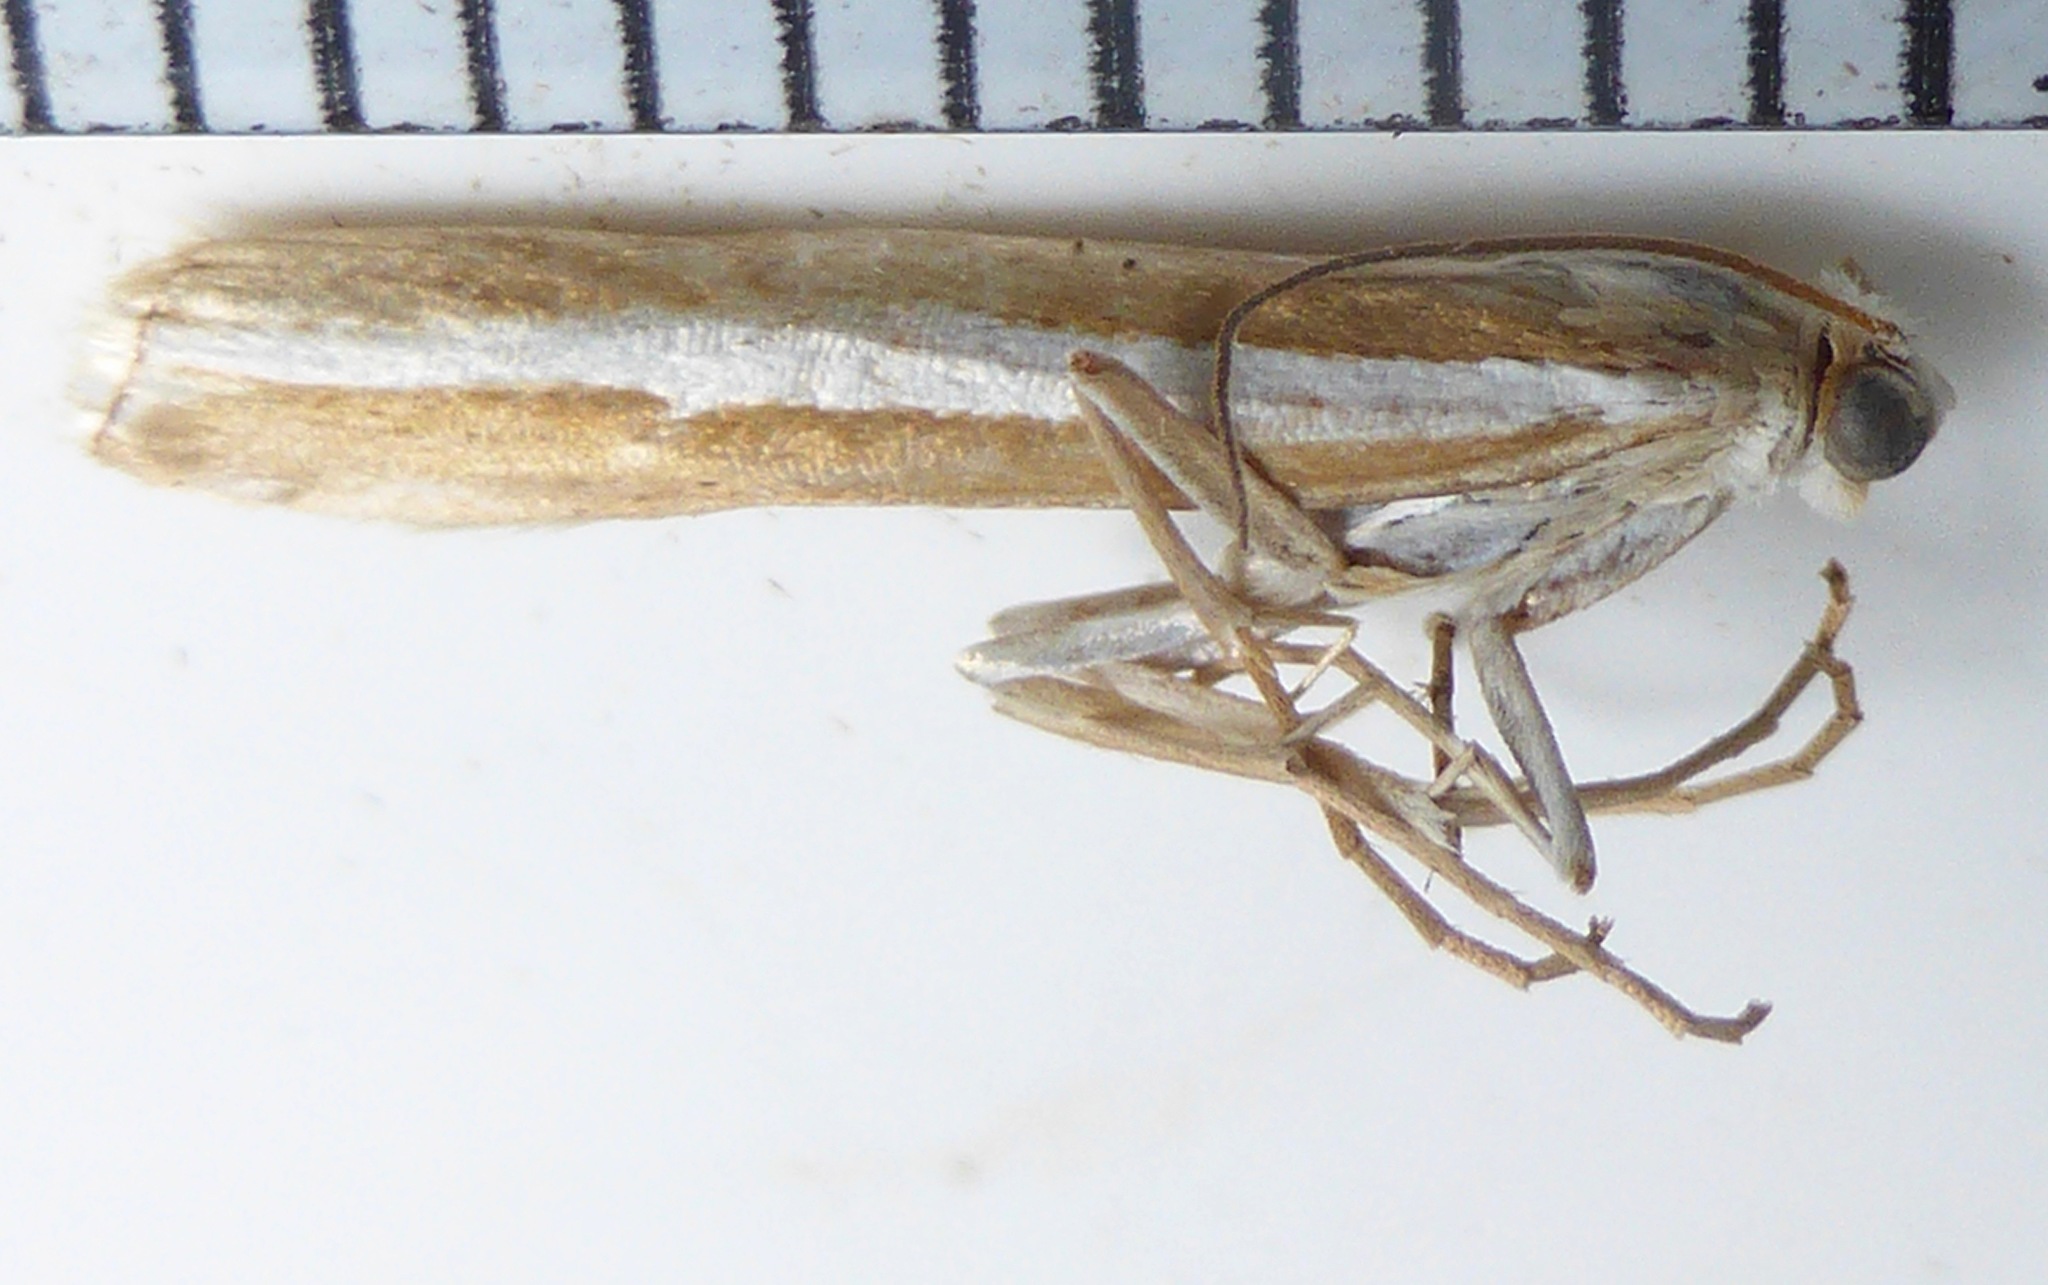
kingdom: Animalia
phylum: Arthropoda
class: Insecta
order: Lepidoptera
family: Crambidae
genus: Orocrambus
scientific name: Orocrambus vittellus
